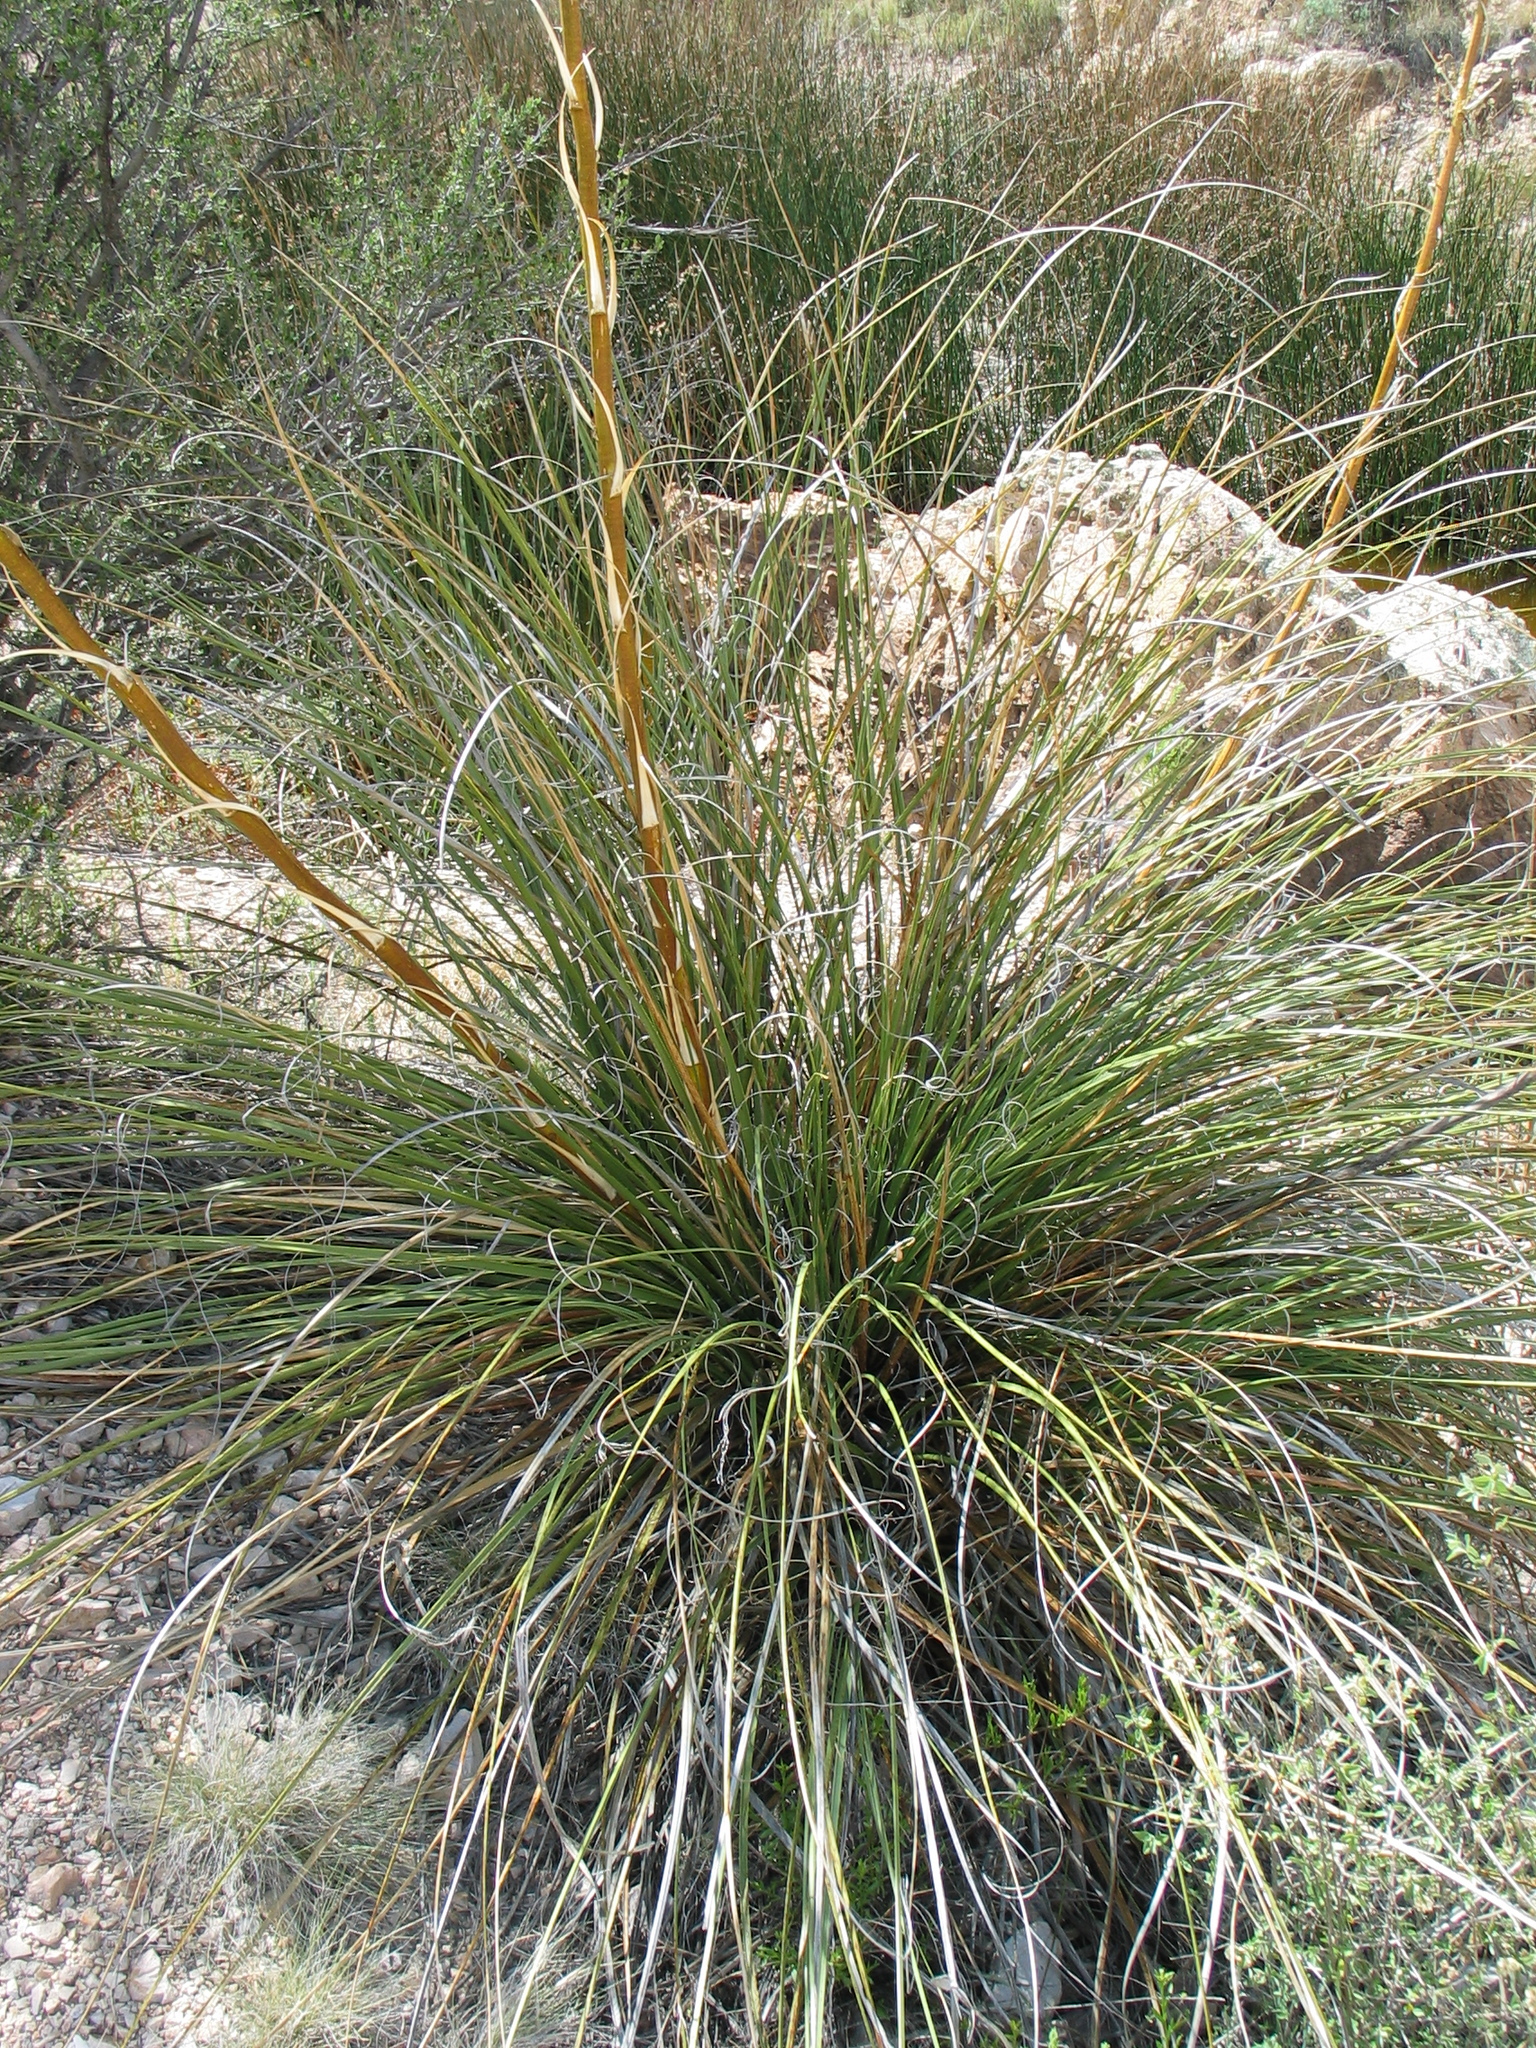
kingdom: Plantae
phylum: Tracheophyta
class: Liliopsida
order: Asparagales
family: Asparagaceae
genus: Nolina
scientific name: Nolina microcarpa
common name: Bear-grass
